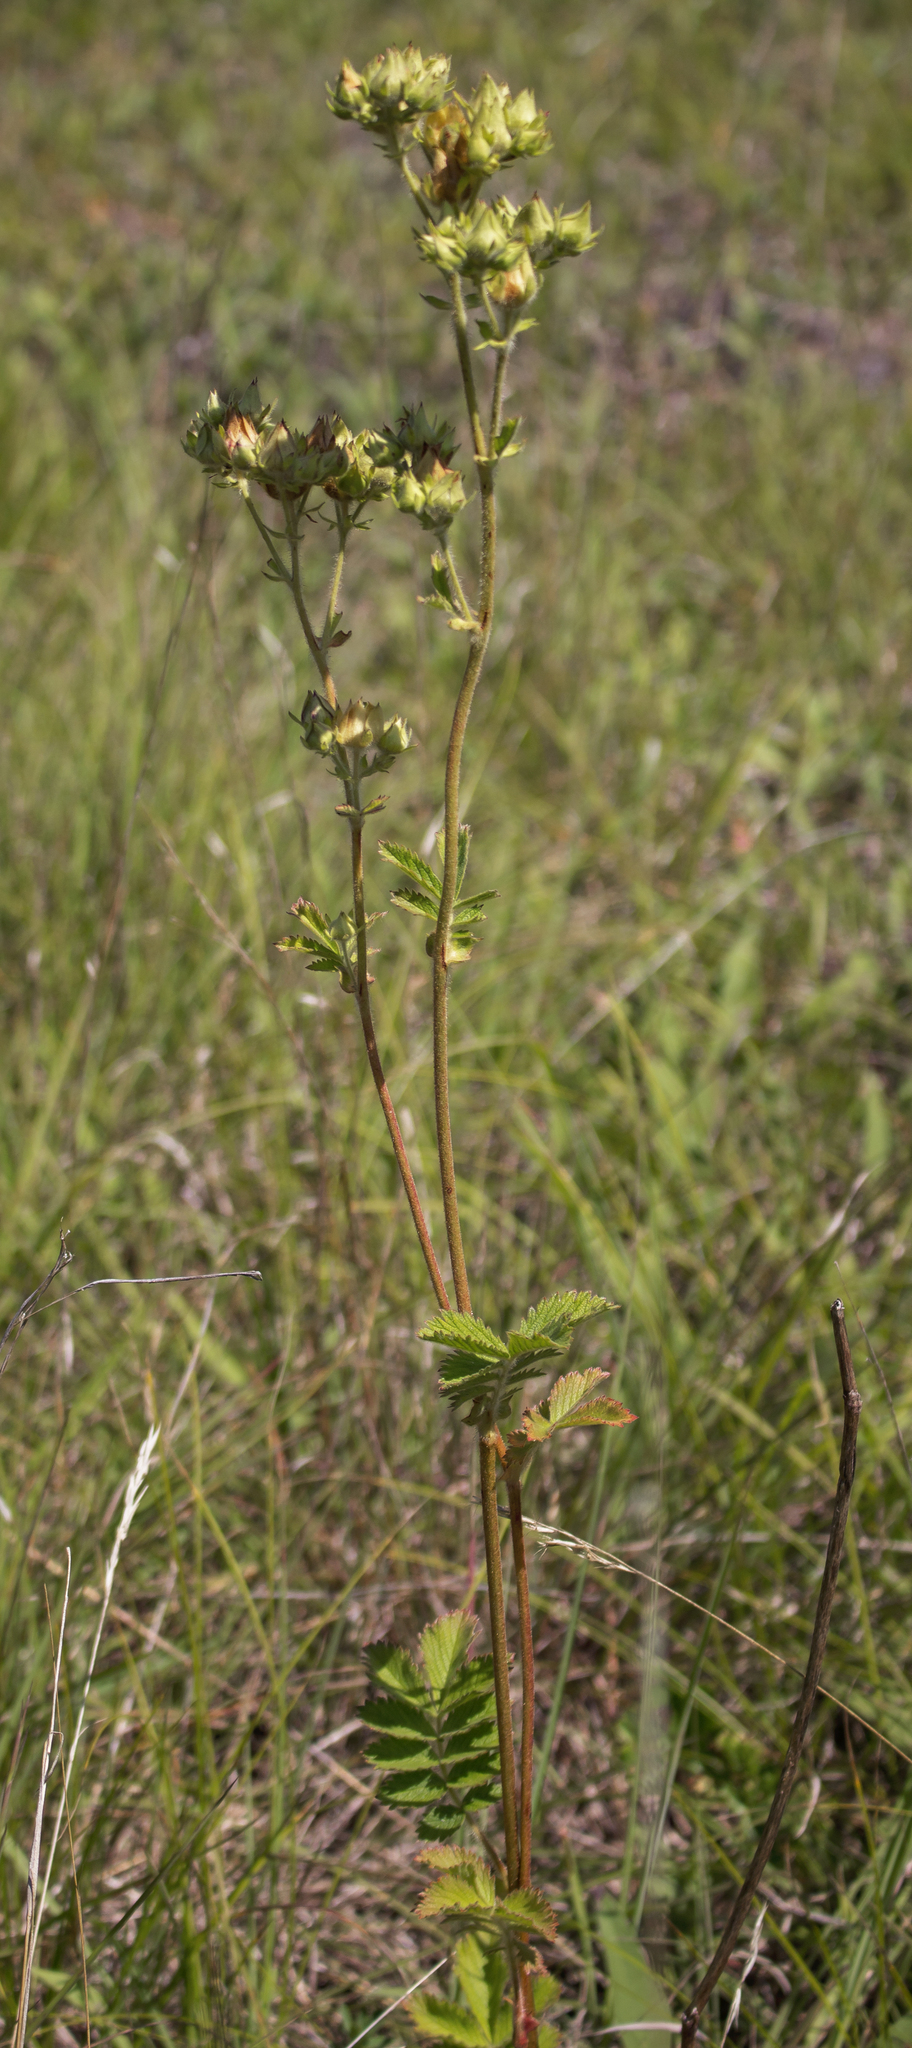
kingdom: Plantae
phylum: Tracheophyta
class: Magnoliopsida
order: Rosales
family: Rosaceae
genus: Drymocallis
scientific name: Drymocallis arguta
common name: Tall cinquefoil
